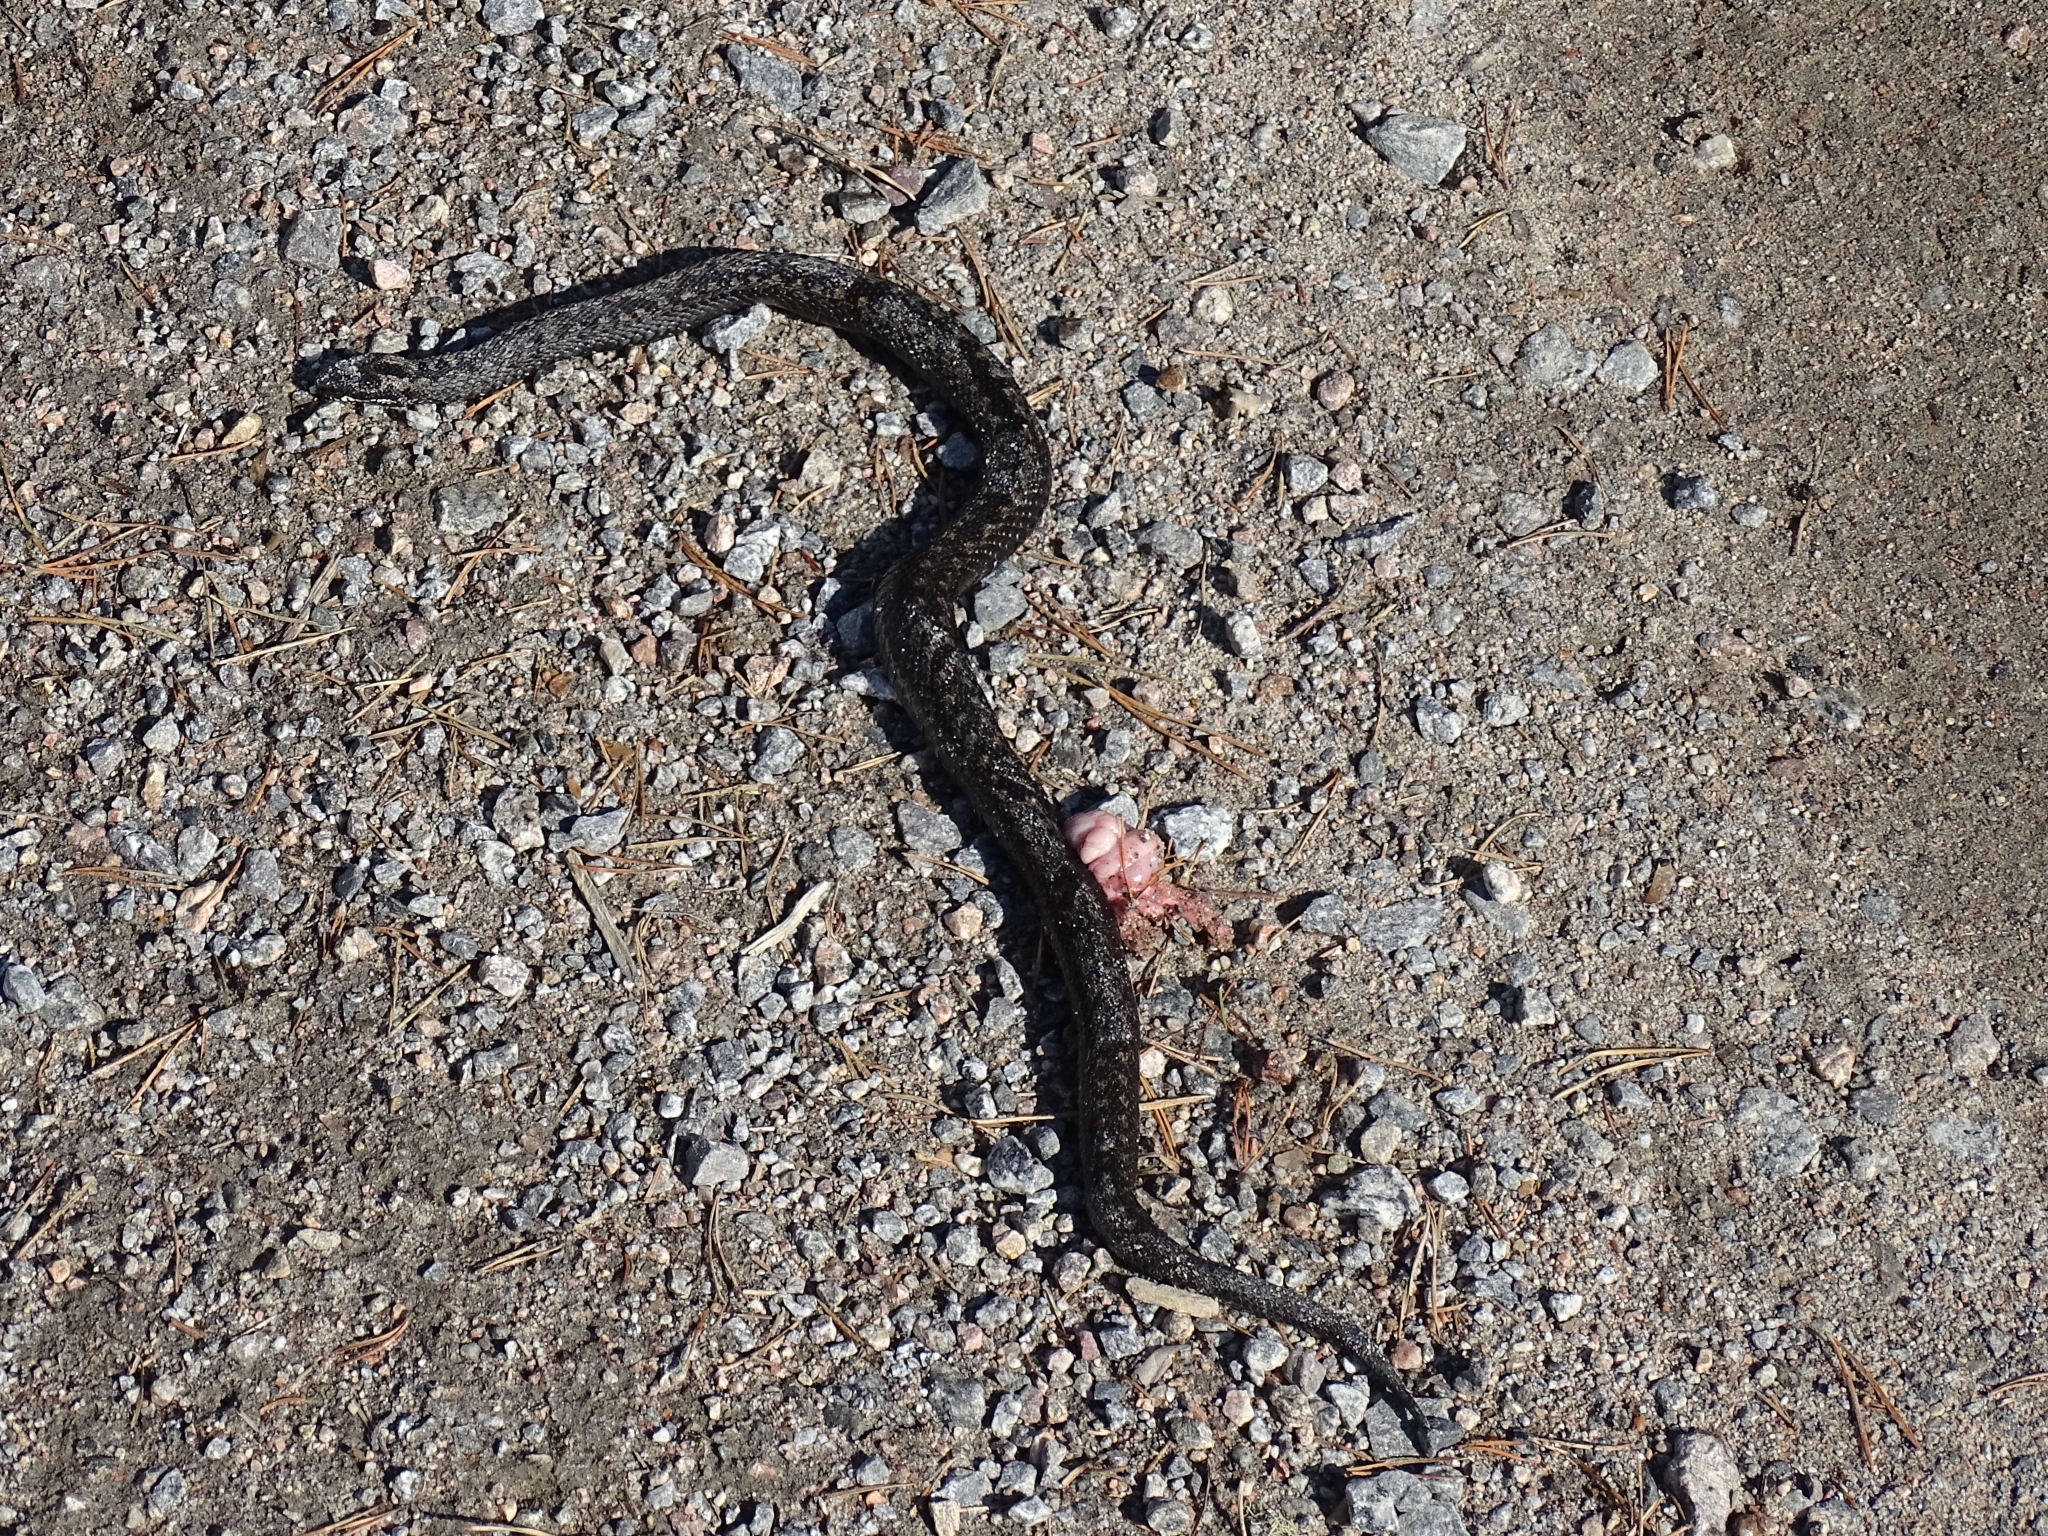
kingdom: Animalia
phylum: Chordata
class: Squamata
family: Viperidae
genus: Vipera
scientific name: Vipera berus
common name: Adder
